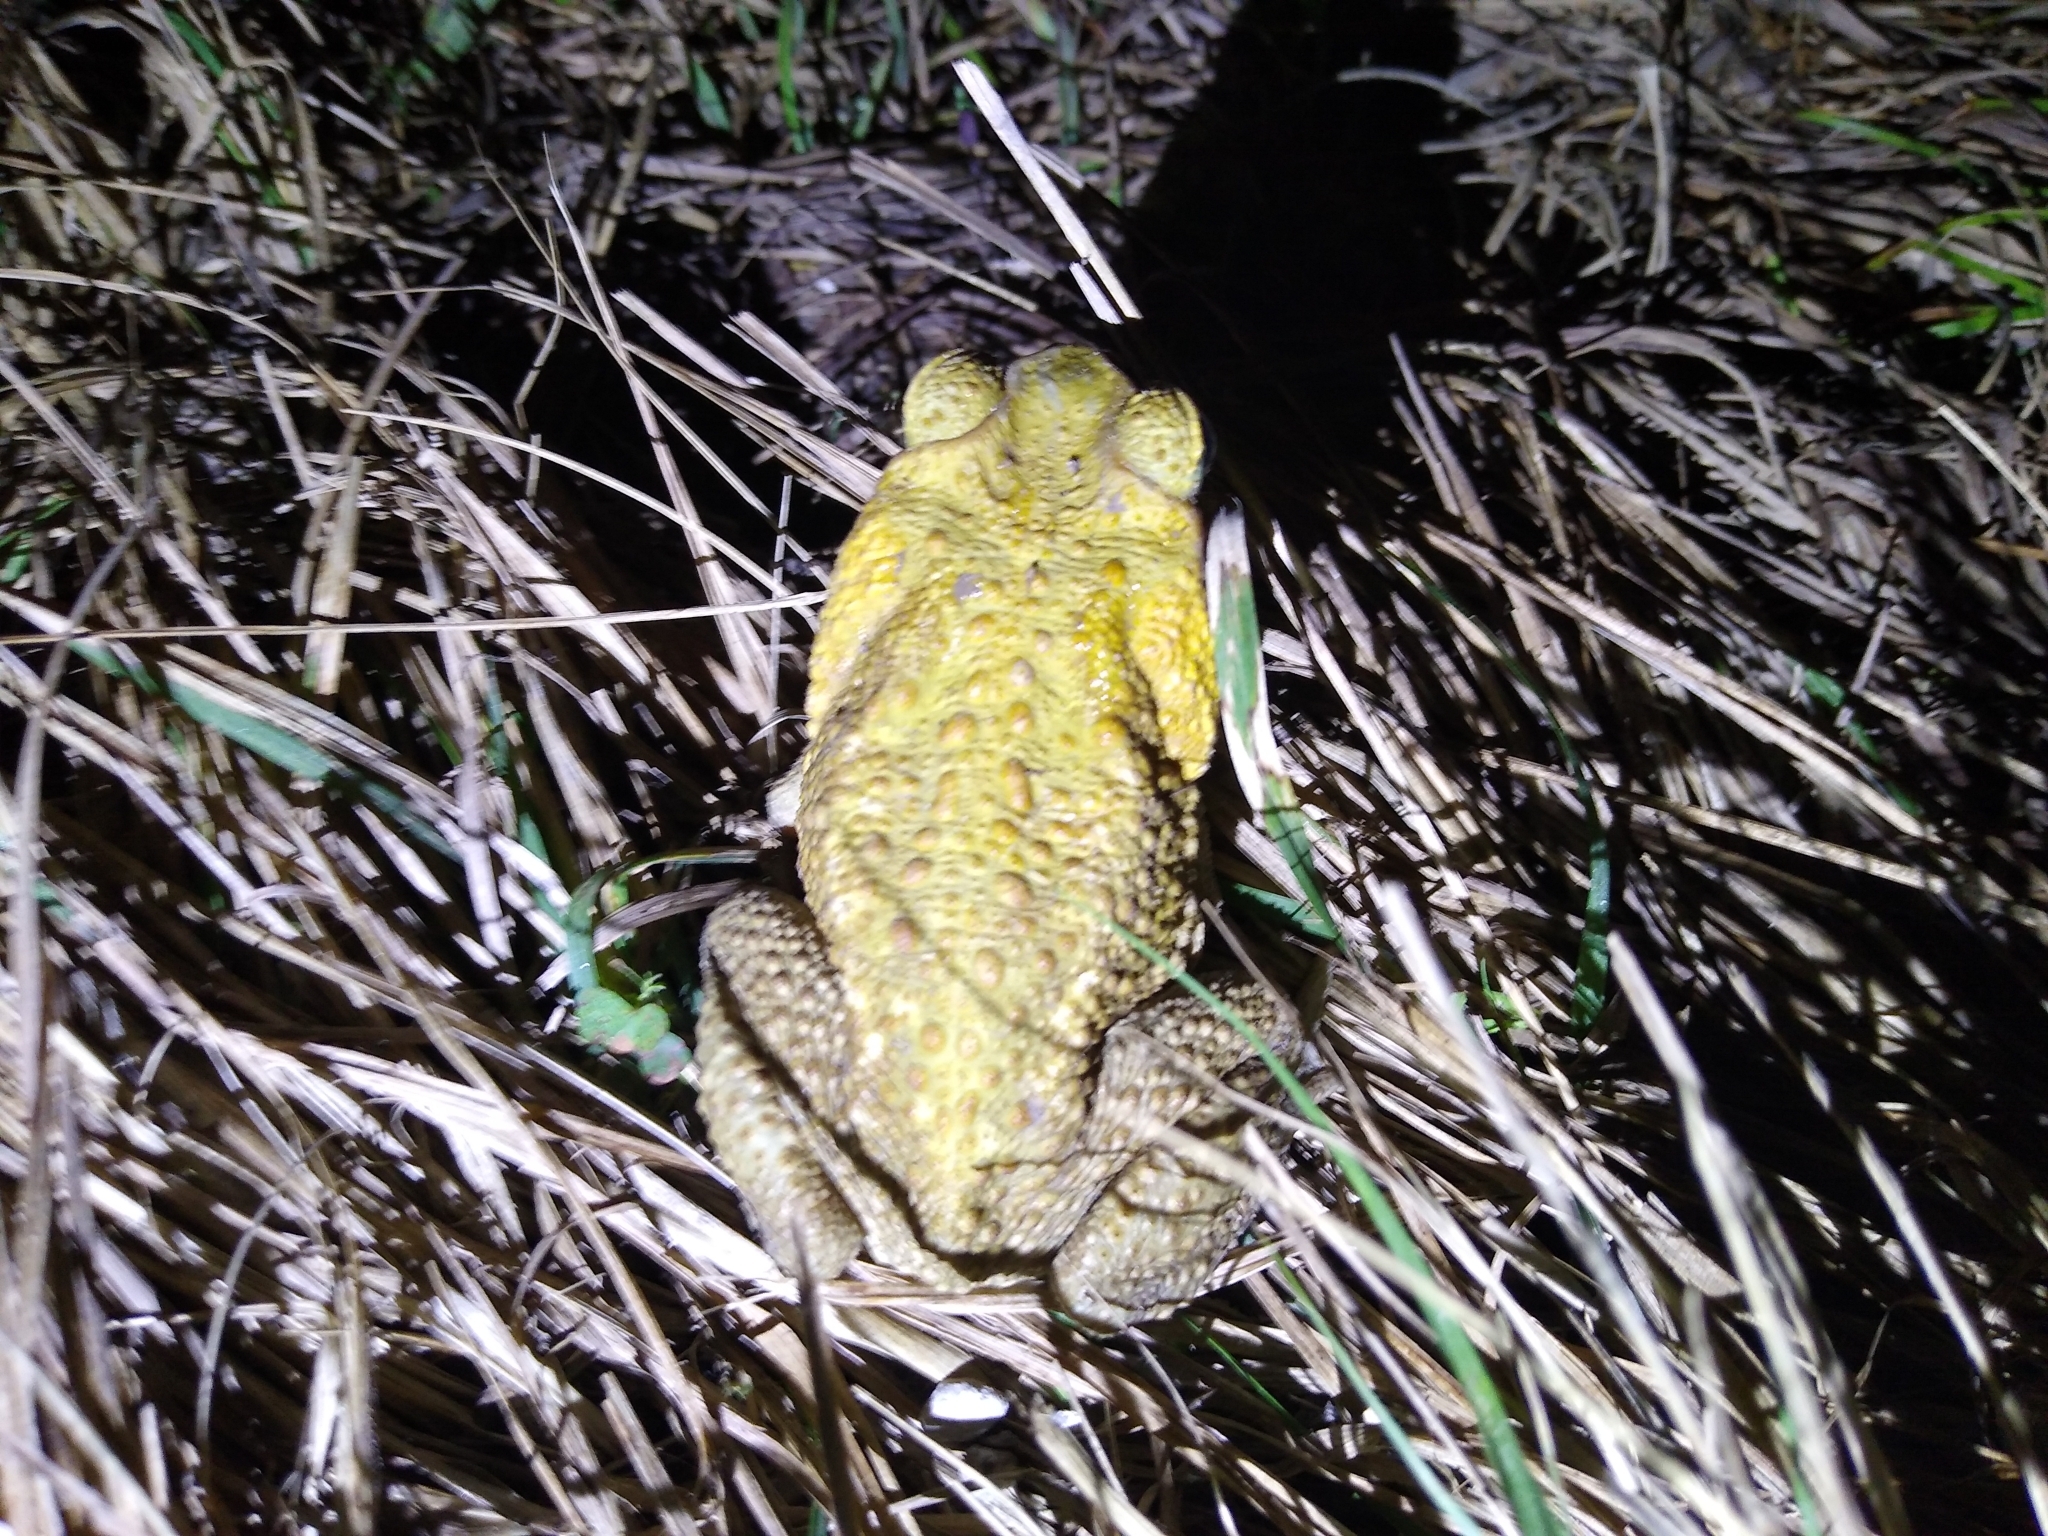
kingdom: Animalia
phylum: Chordata
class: Amphibia
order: Anura
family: Bufonidae
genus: Rhinella
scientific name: Rhinella marina
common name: Cane toad
